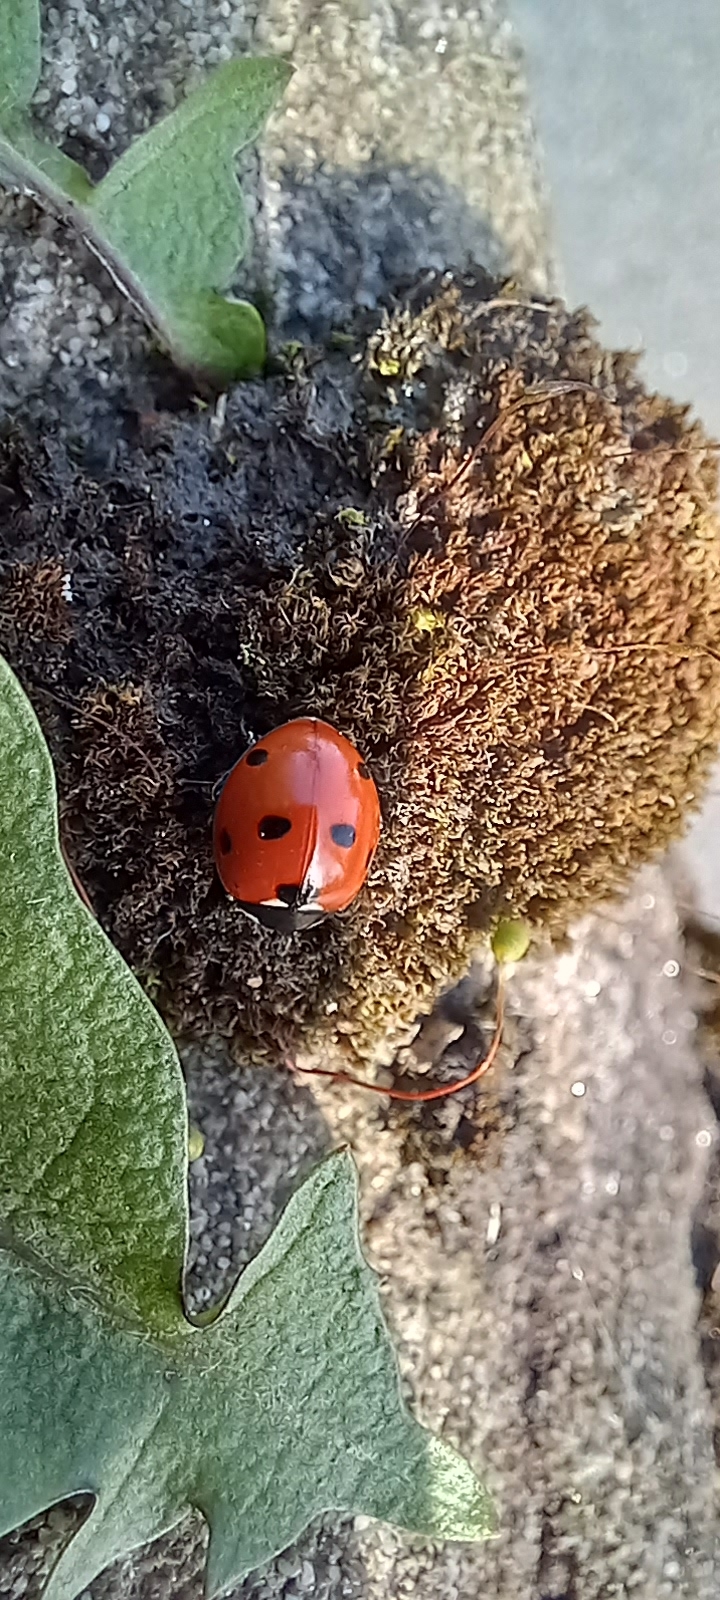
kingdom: Animalia
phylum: Arthropoda
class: Insecta
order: Coleoptera
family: Coccinellidae
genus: Coccinella
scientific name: Coccinella septempunctata
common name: Sevenspotted lady beetle
